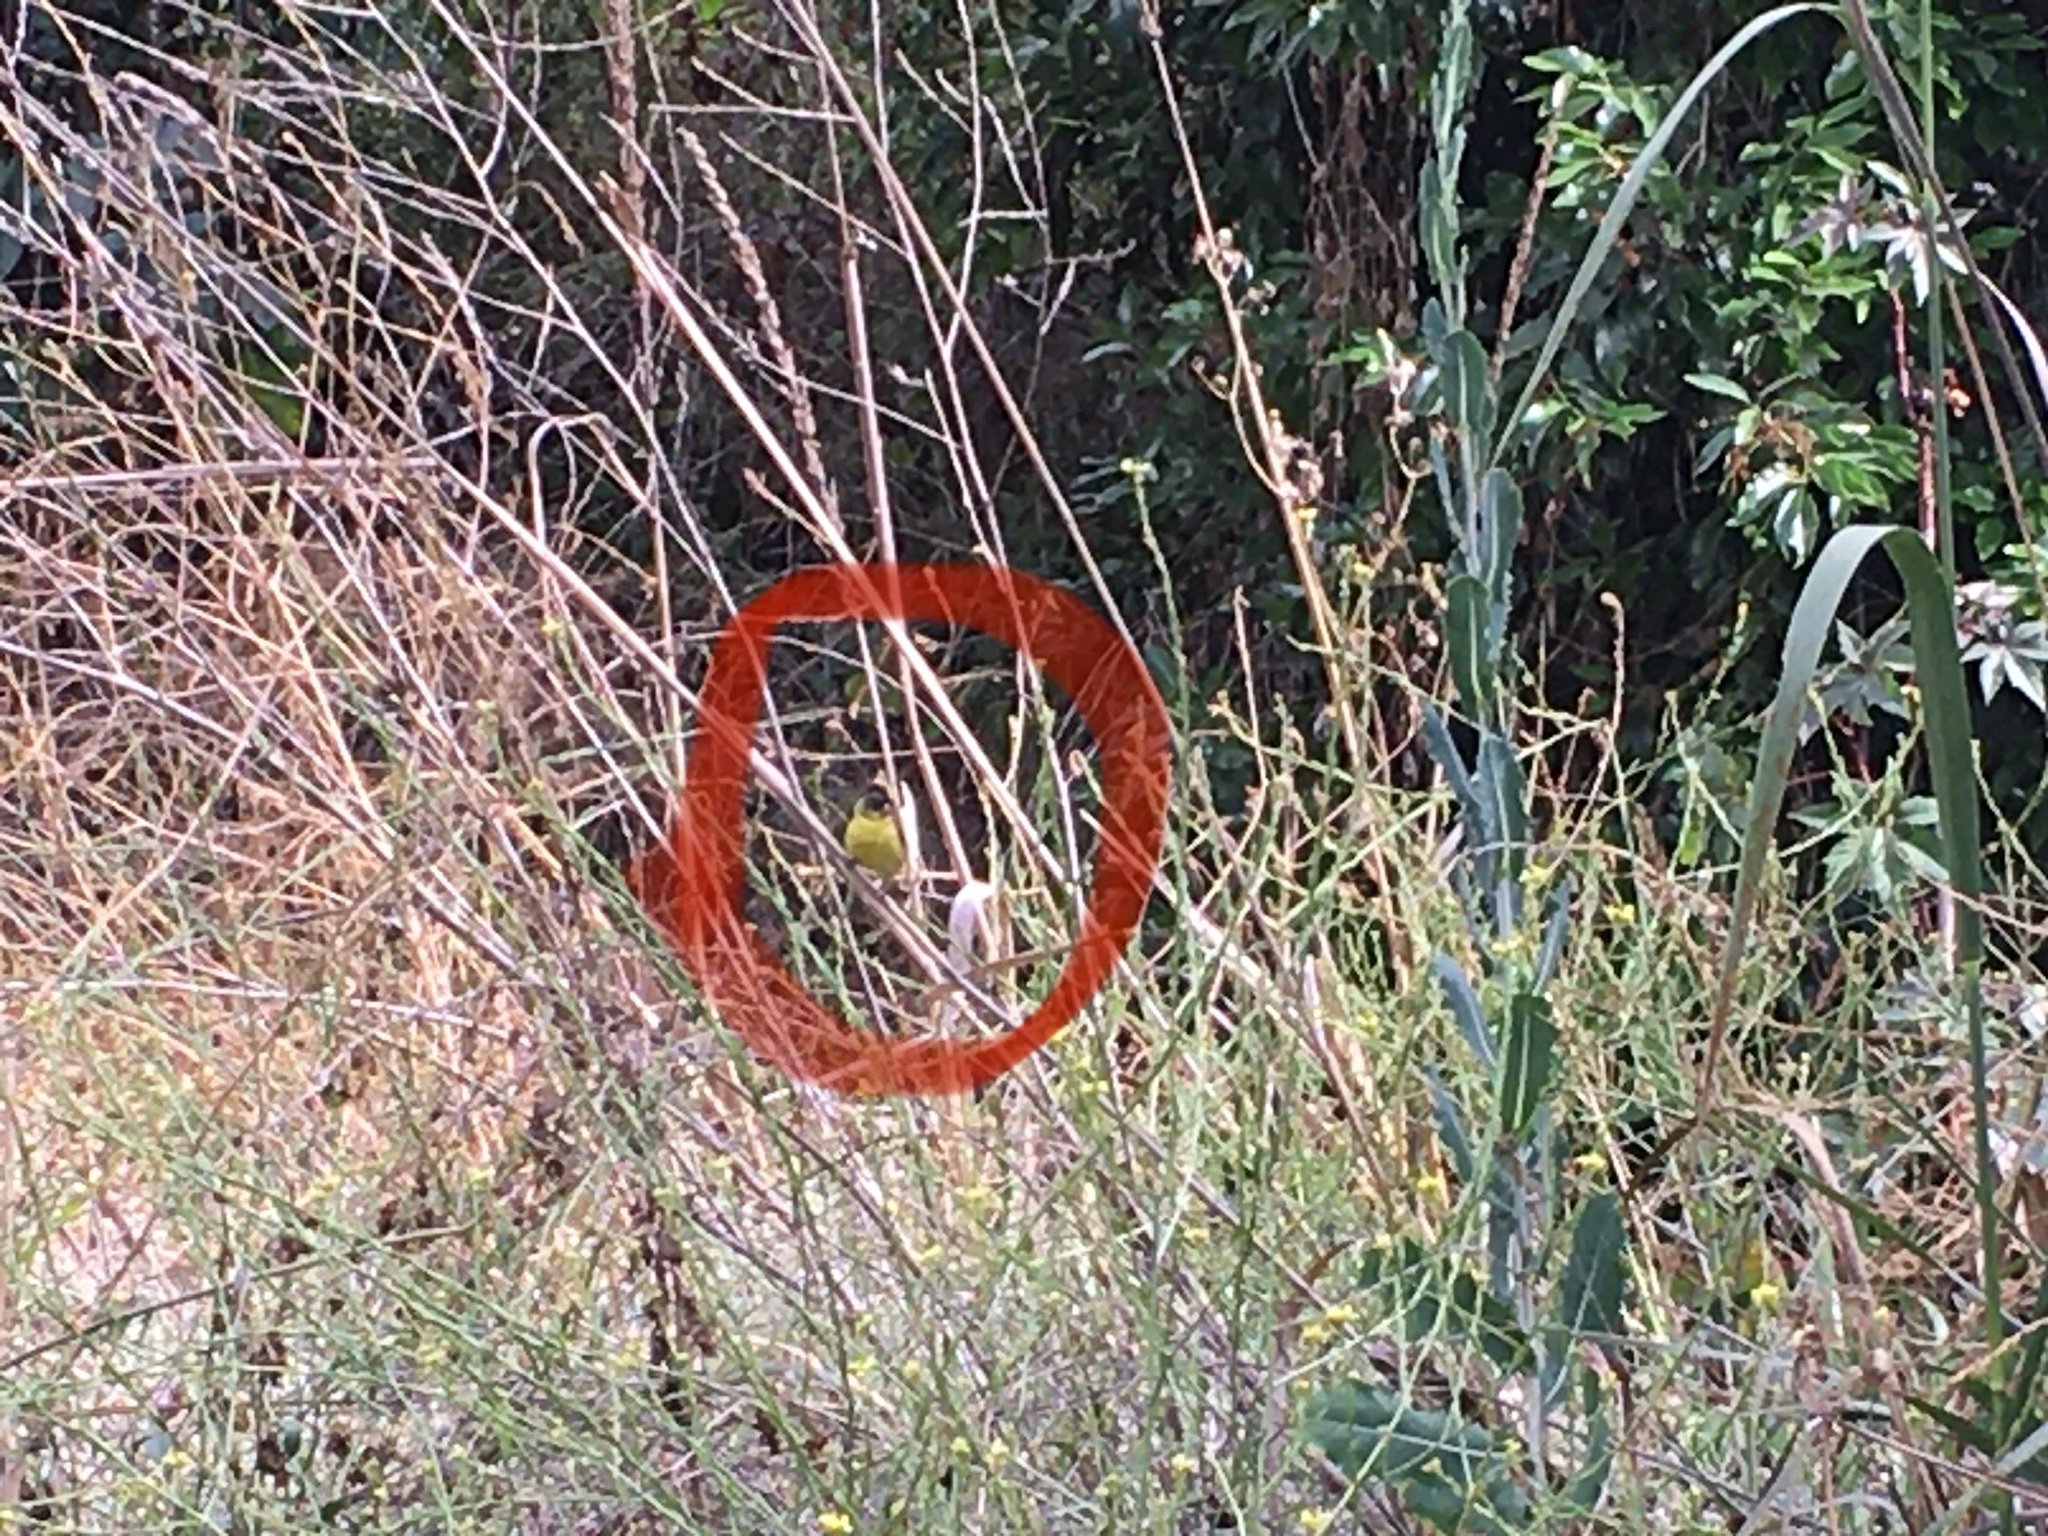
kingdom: Animalia
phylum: Chordata
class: Aves
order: Passeriformes
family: Fringillidae
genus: Spinus
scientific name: Spinus psaltria
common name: Lesser goldfinch
